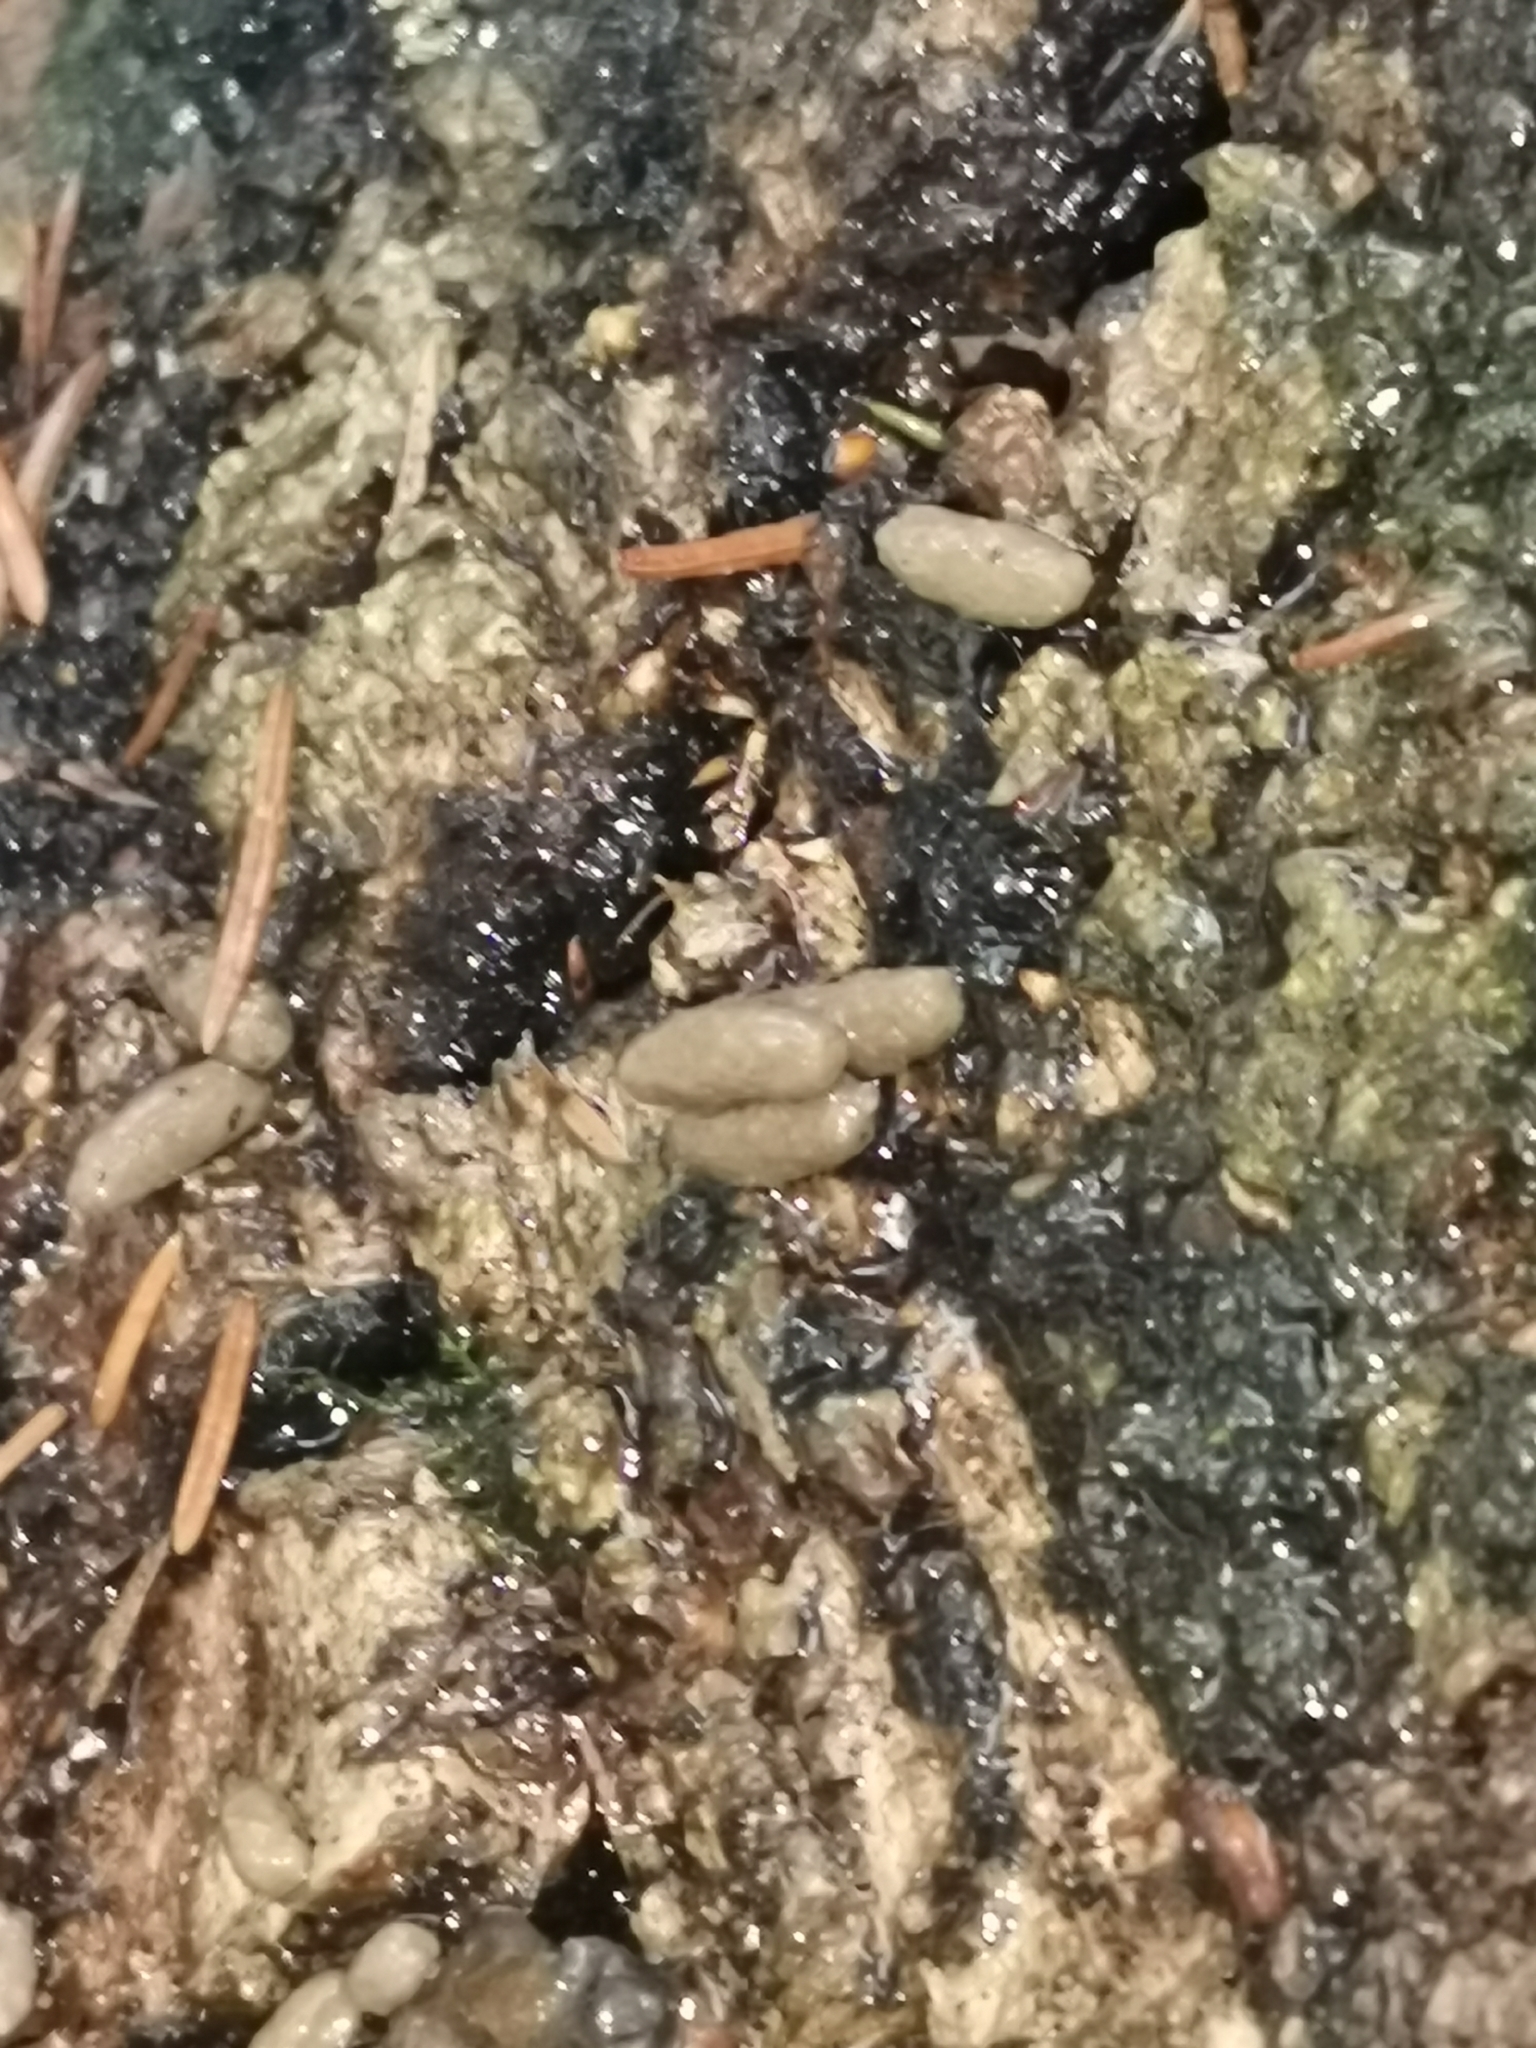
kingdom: Animalia
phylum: Chordata
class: Mammalia
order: Rodentia
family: Sciuridae
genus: Pteromys
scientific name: Pteromys volans
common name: Siberian flying squirrel
